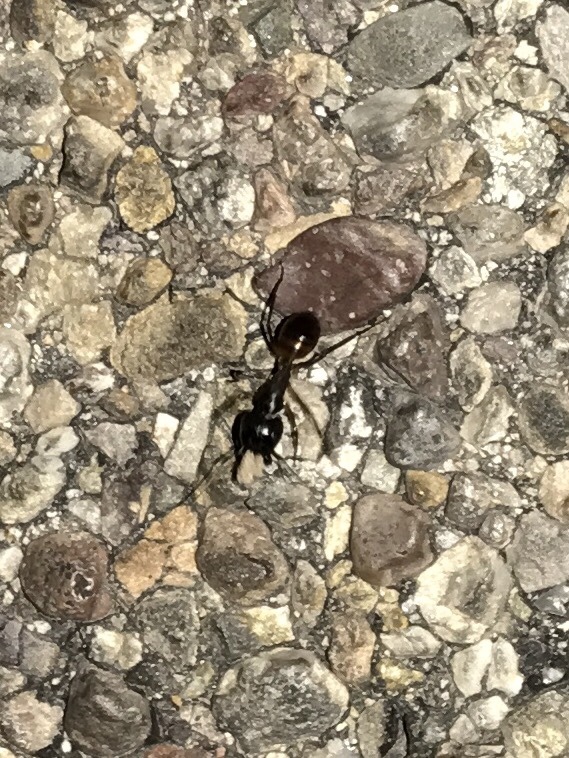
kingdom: Animalia
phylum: Arthropoda
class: Insecta
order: Hymenoptera
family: Formicidae
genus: Camponotus
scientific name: Camponotus ocreatus
